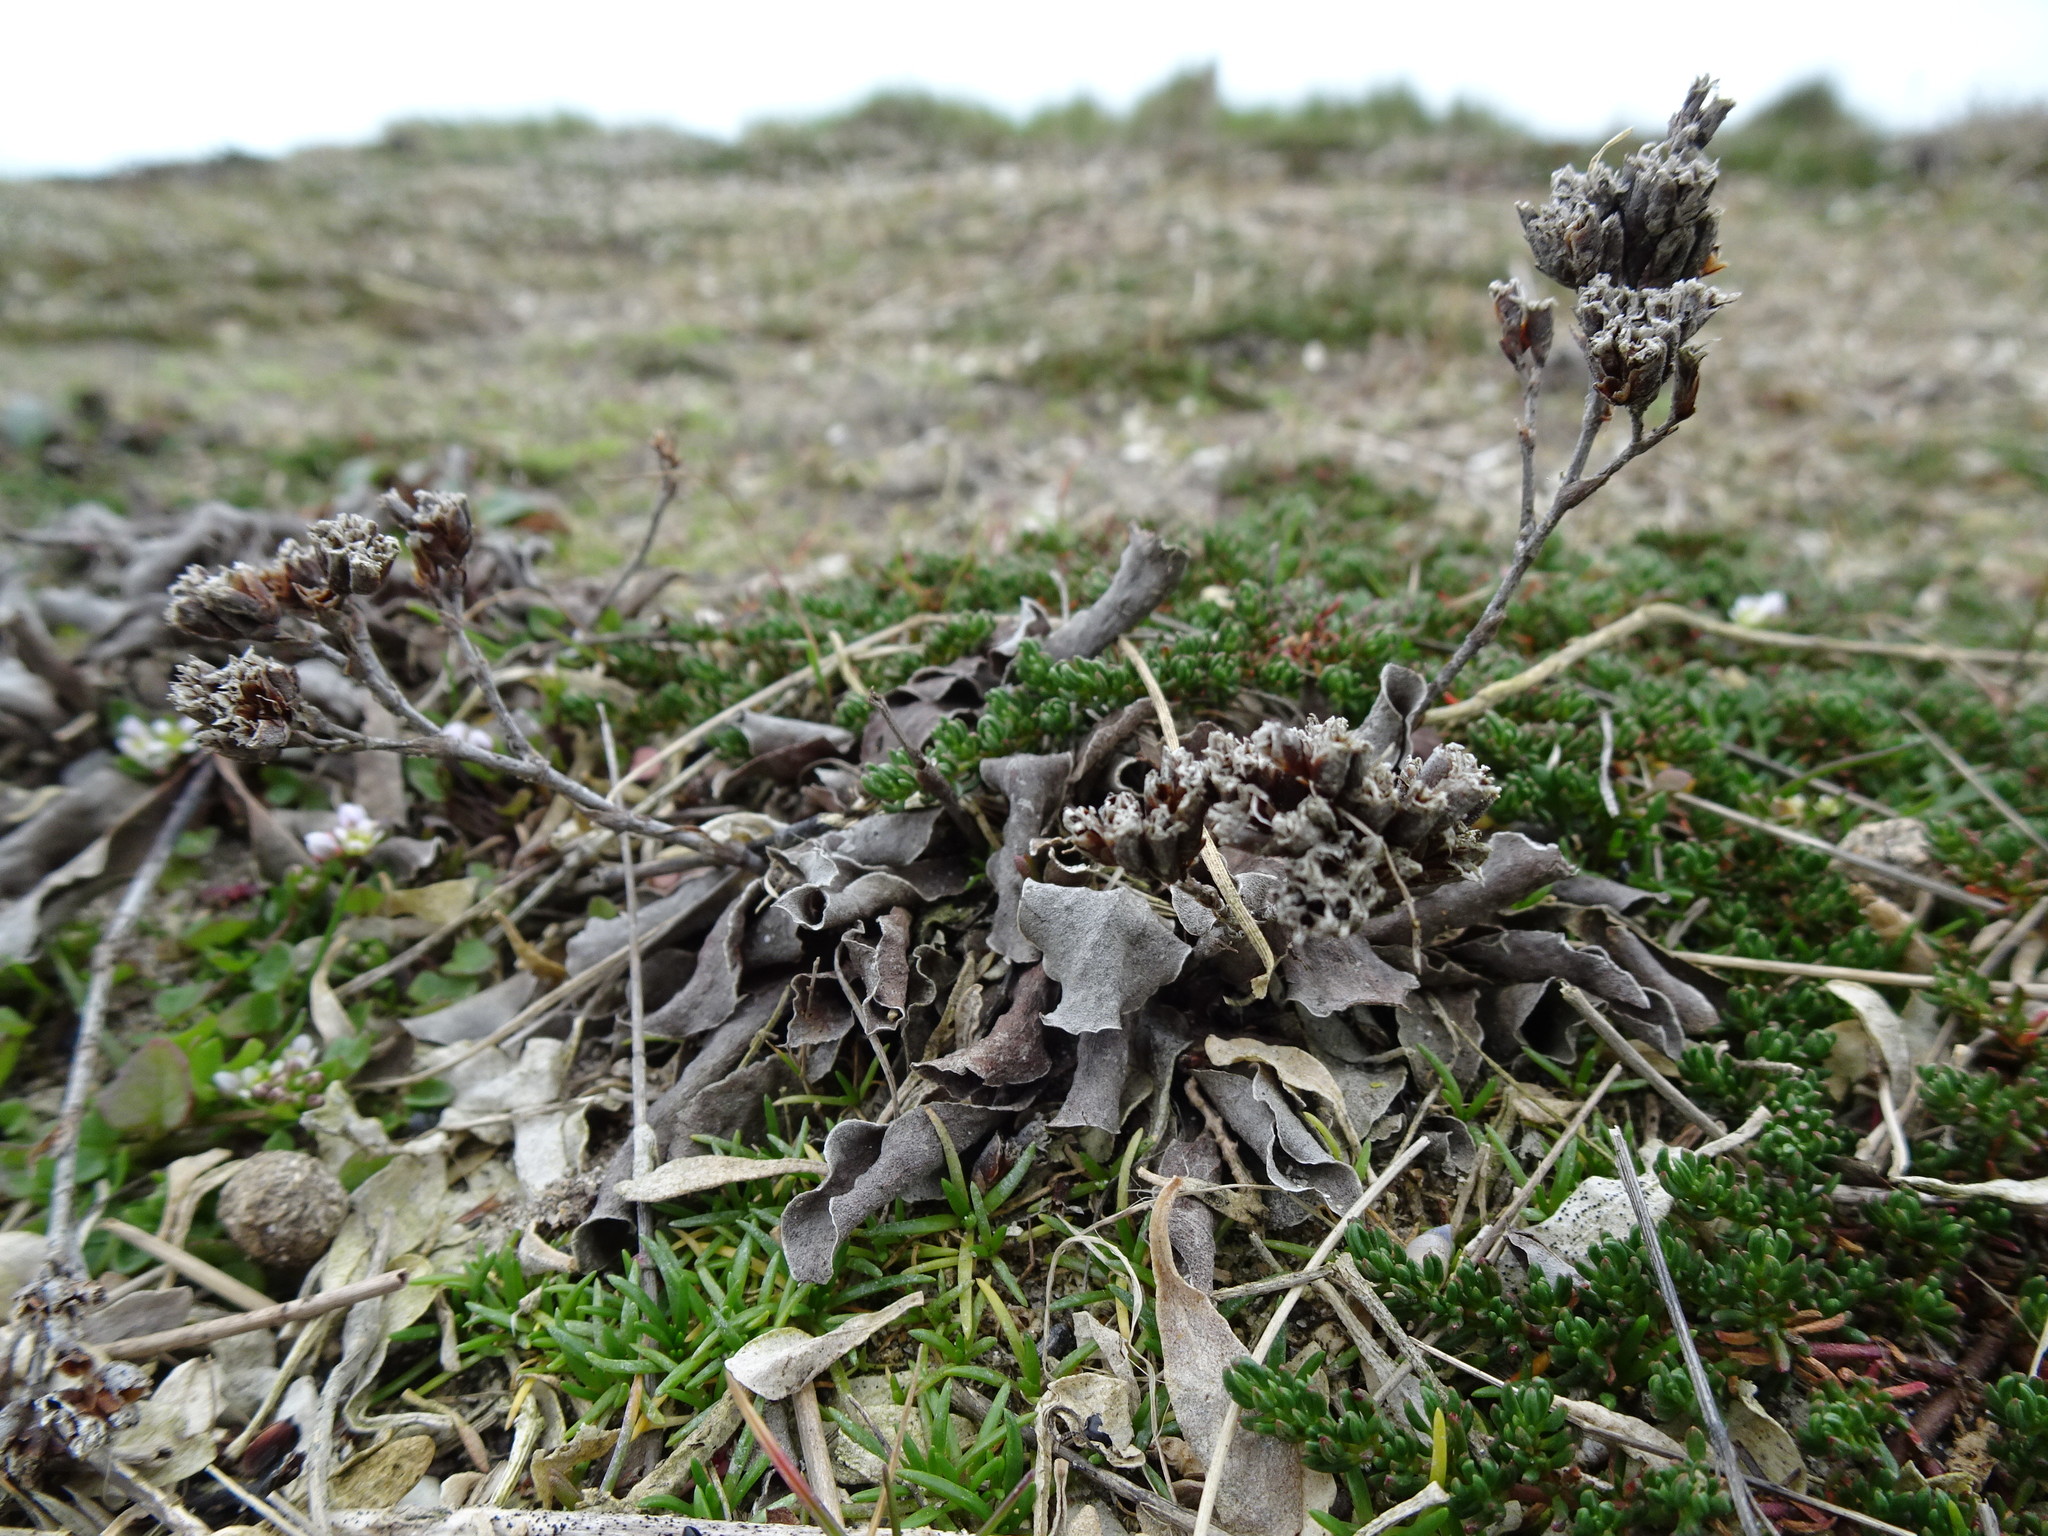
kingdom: Plantae
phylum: Tracheophyta
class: Magnoliopsida
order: Caryophyllales
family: Plumbaginaceae
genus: Limonium
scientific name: Limonium vulgare
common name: Common sea-lavender
